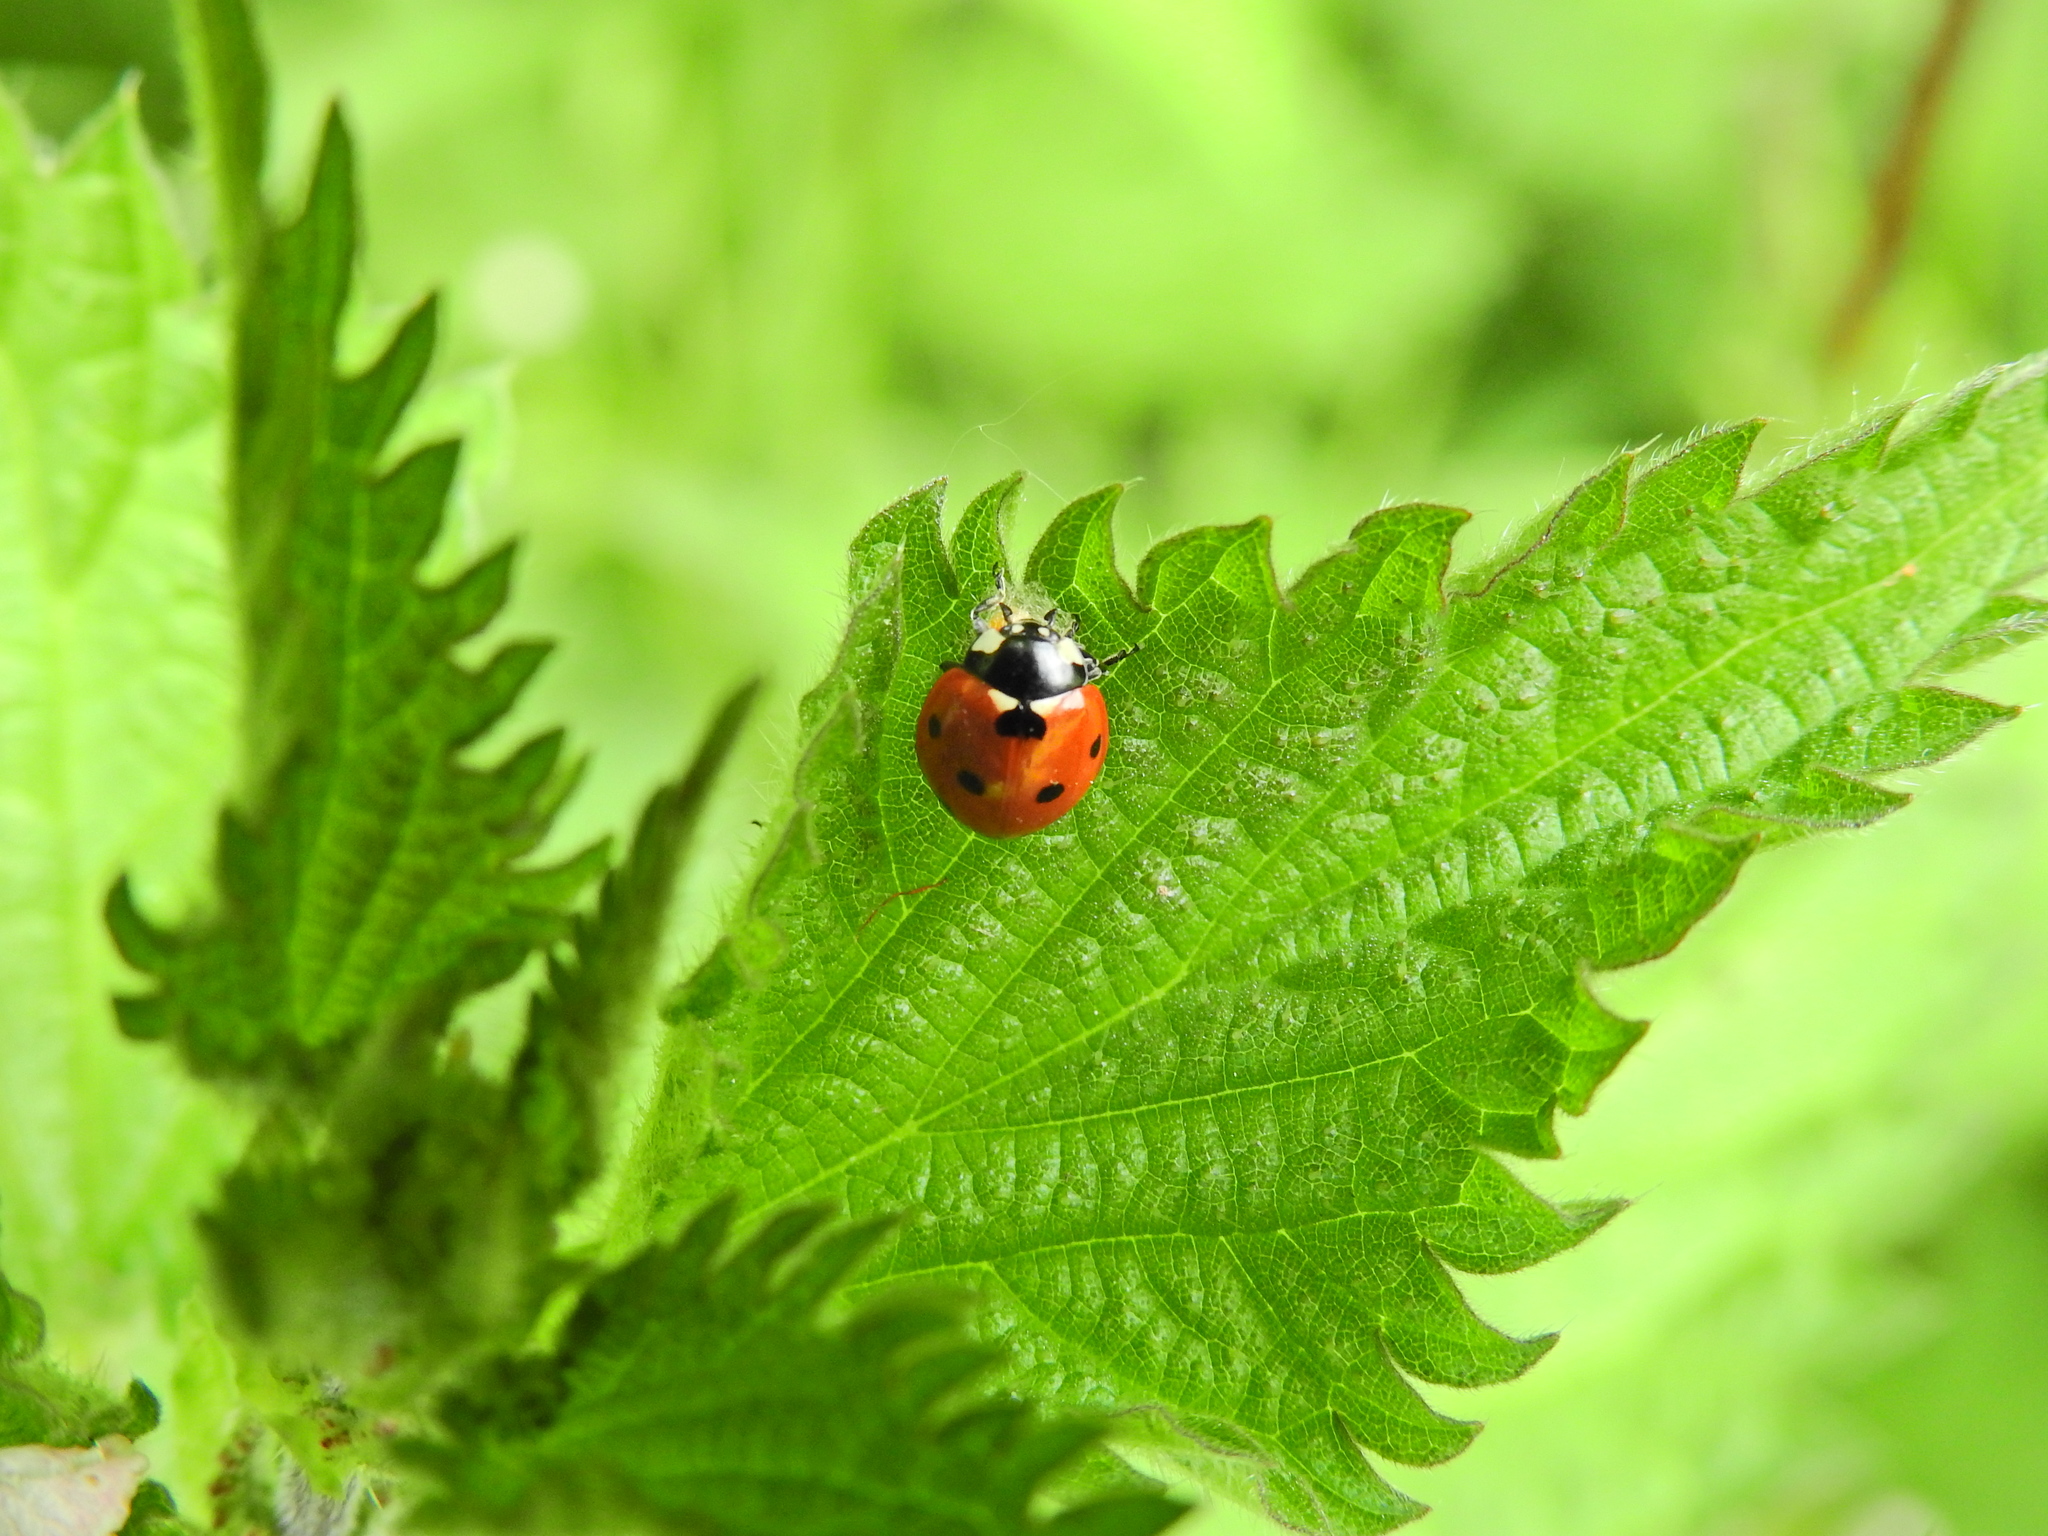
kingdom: Animalia
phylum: Arthropoda
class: Insecta
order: Coleoptera
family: Coccinellidae
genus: Coccinella
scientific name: Coccinella septempunctata
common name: Sevenspotted lady beetle
